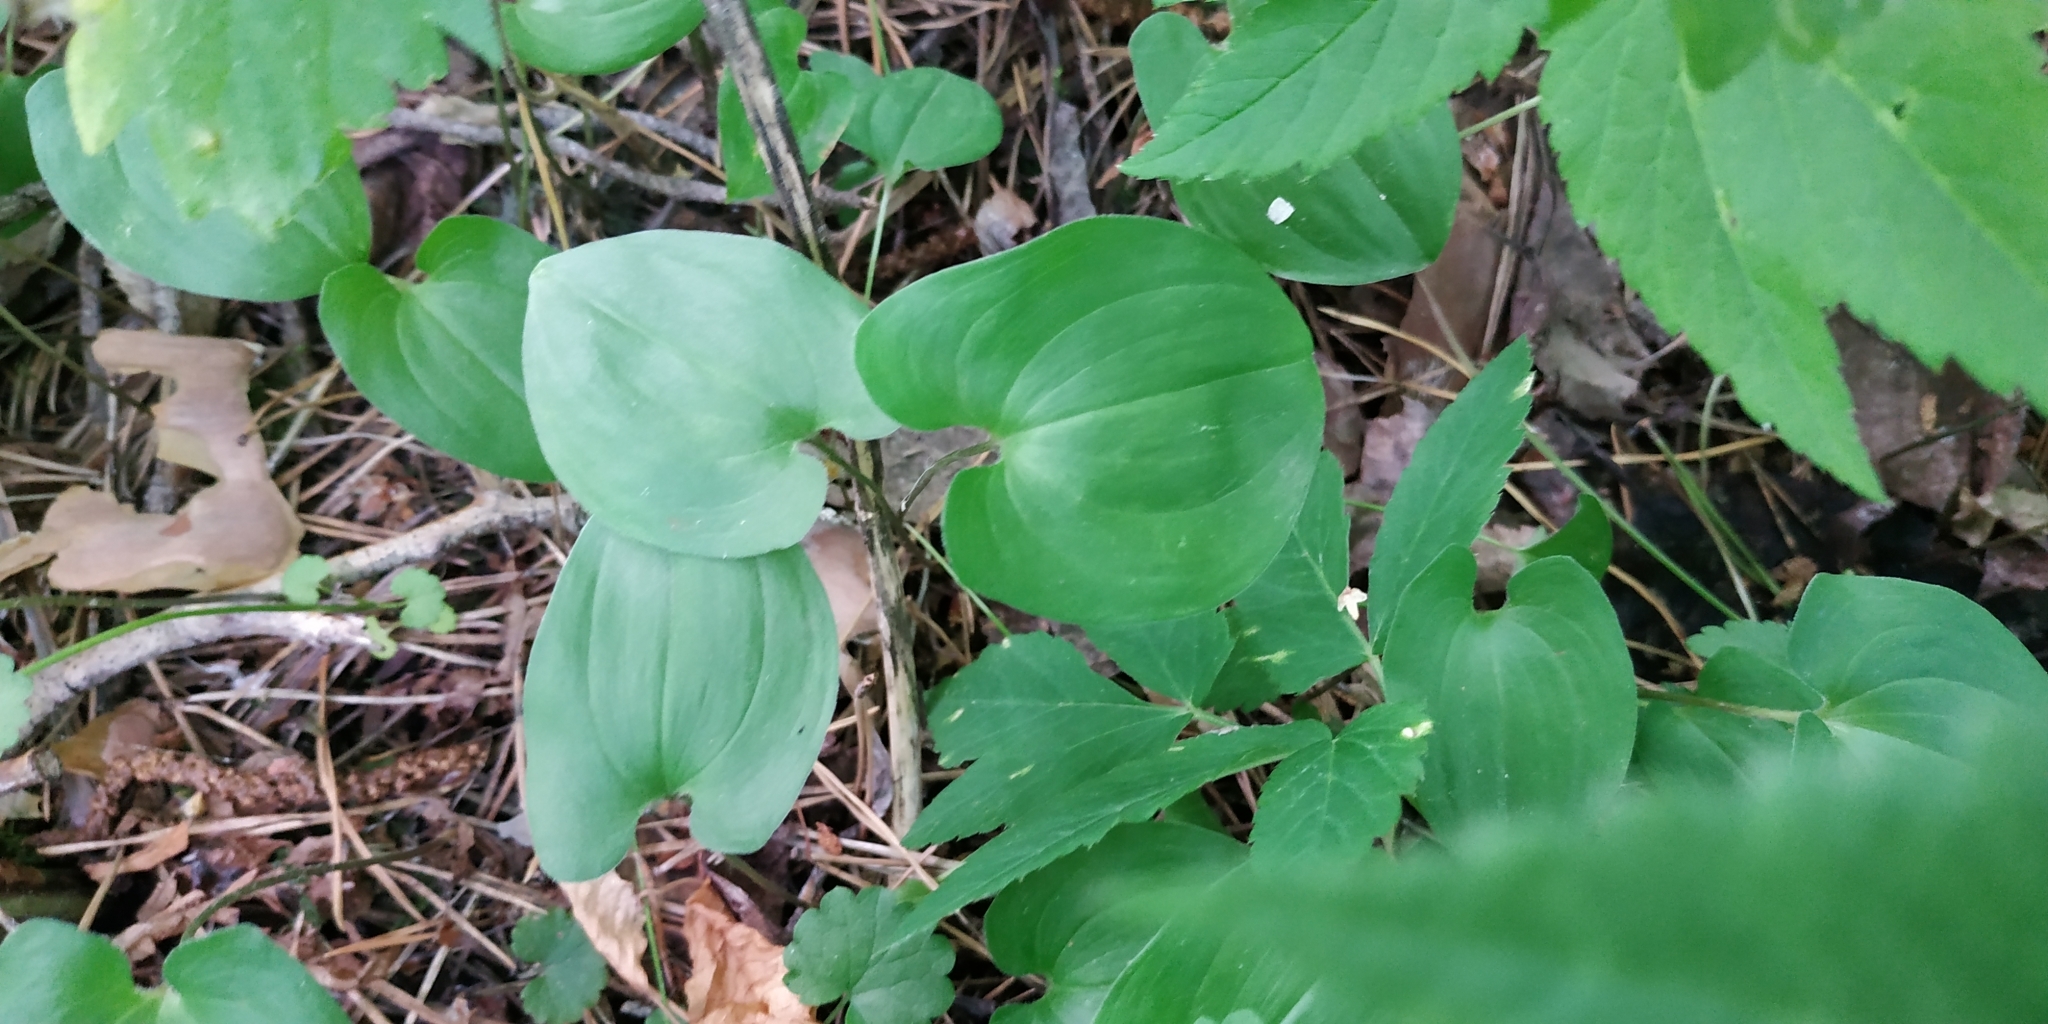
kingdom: Plantae
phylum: Tracheophyta
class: Liliopsida
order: Asparagales
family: Asparagaceae
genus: Maianthemum
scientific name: Maianthemum bifolium
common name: May lily
